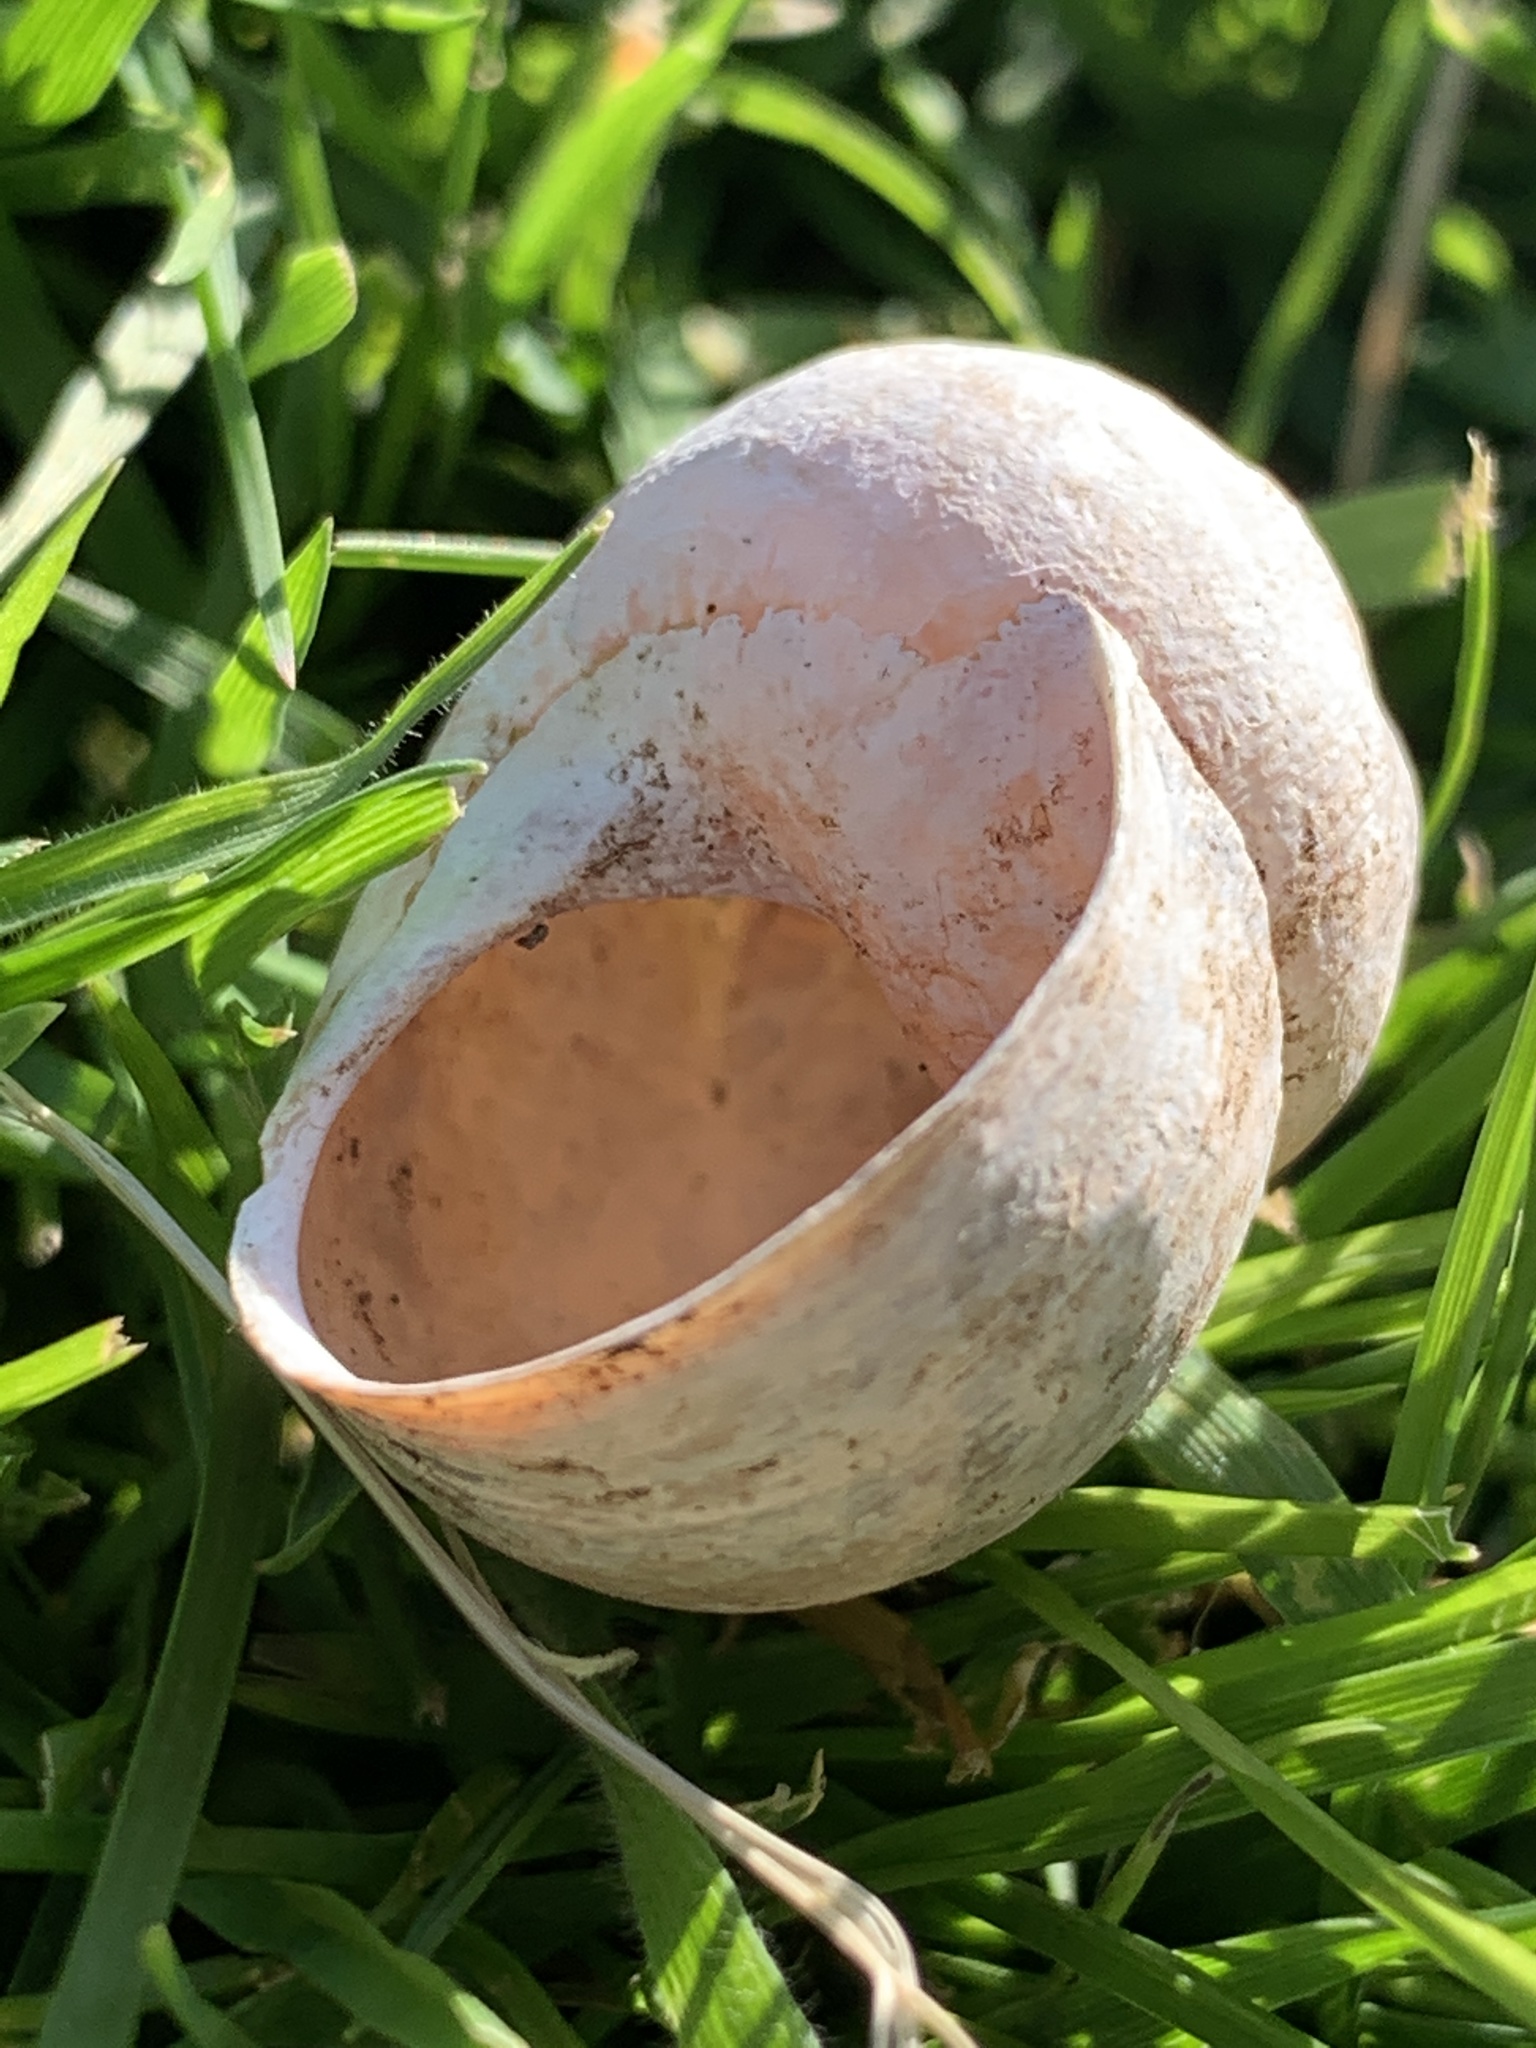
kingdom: Animalia
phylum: Mollusca
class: Gastropoda
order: Stylommatophora
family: Helicidae
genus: Cornu
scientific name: Cornu aspersum
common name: Brown garden snail
